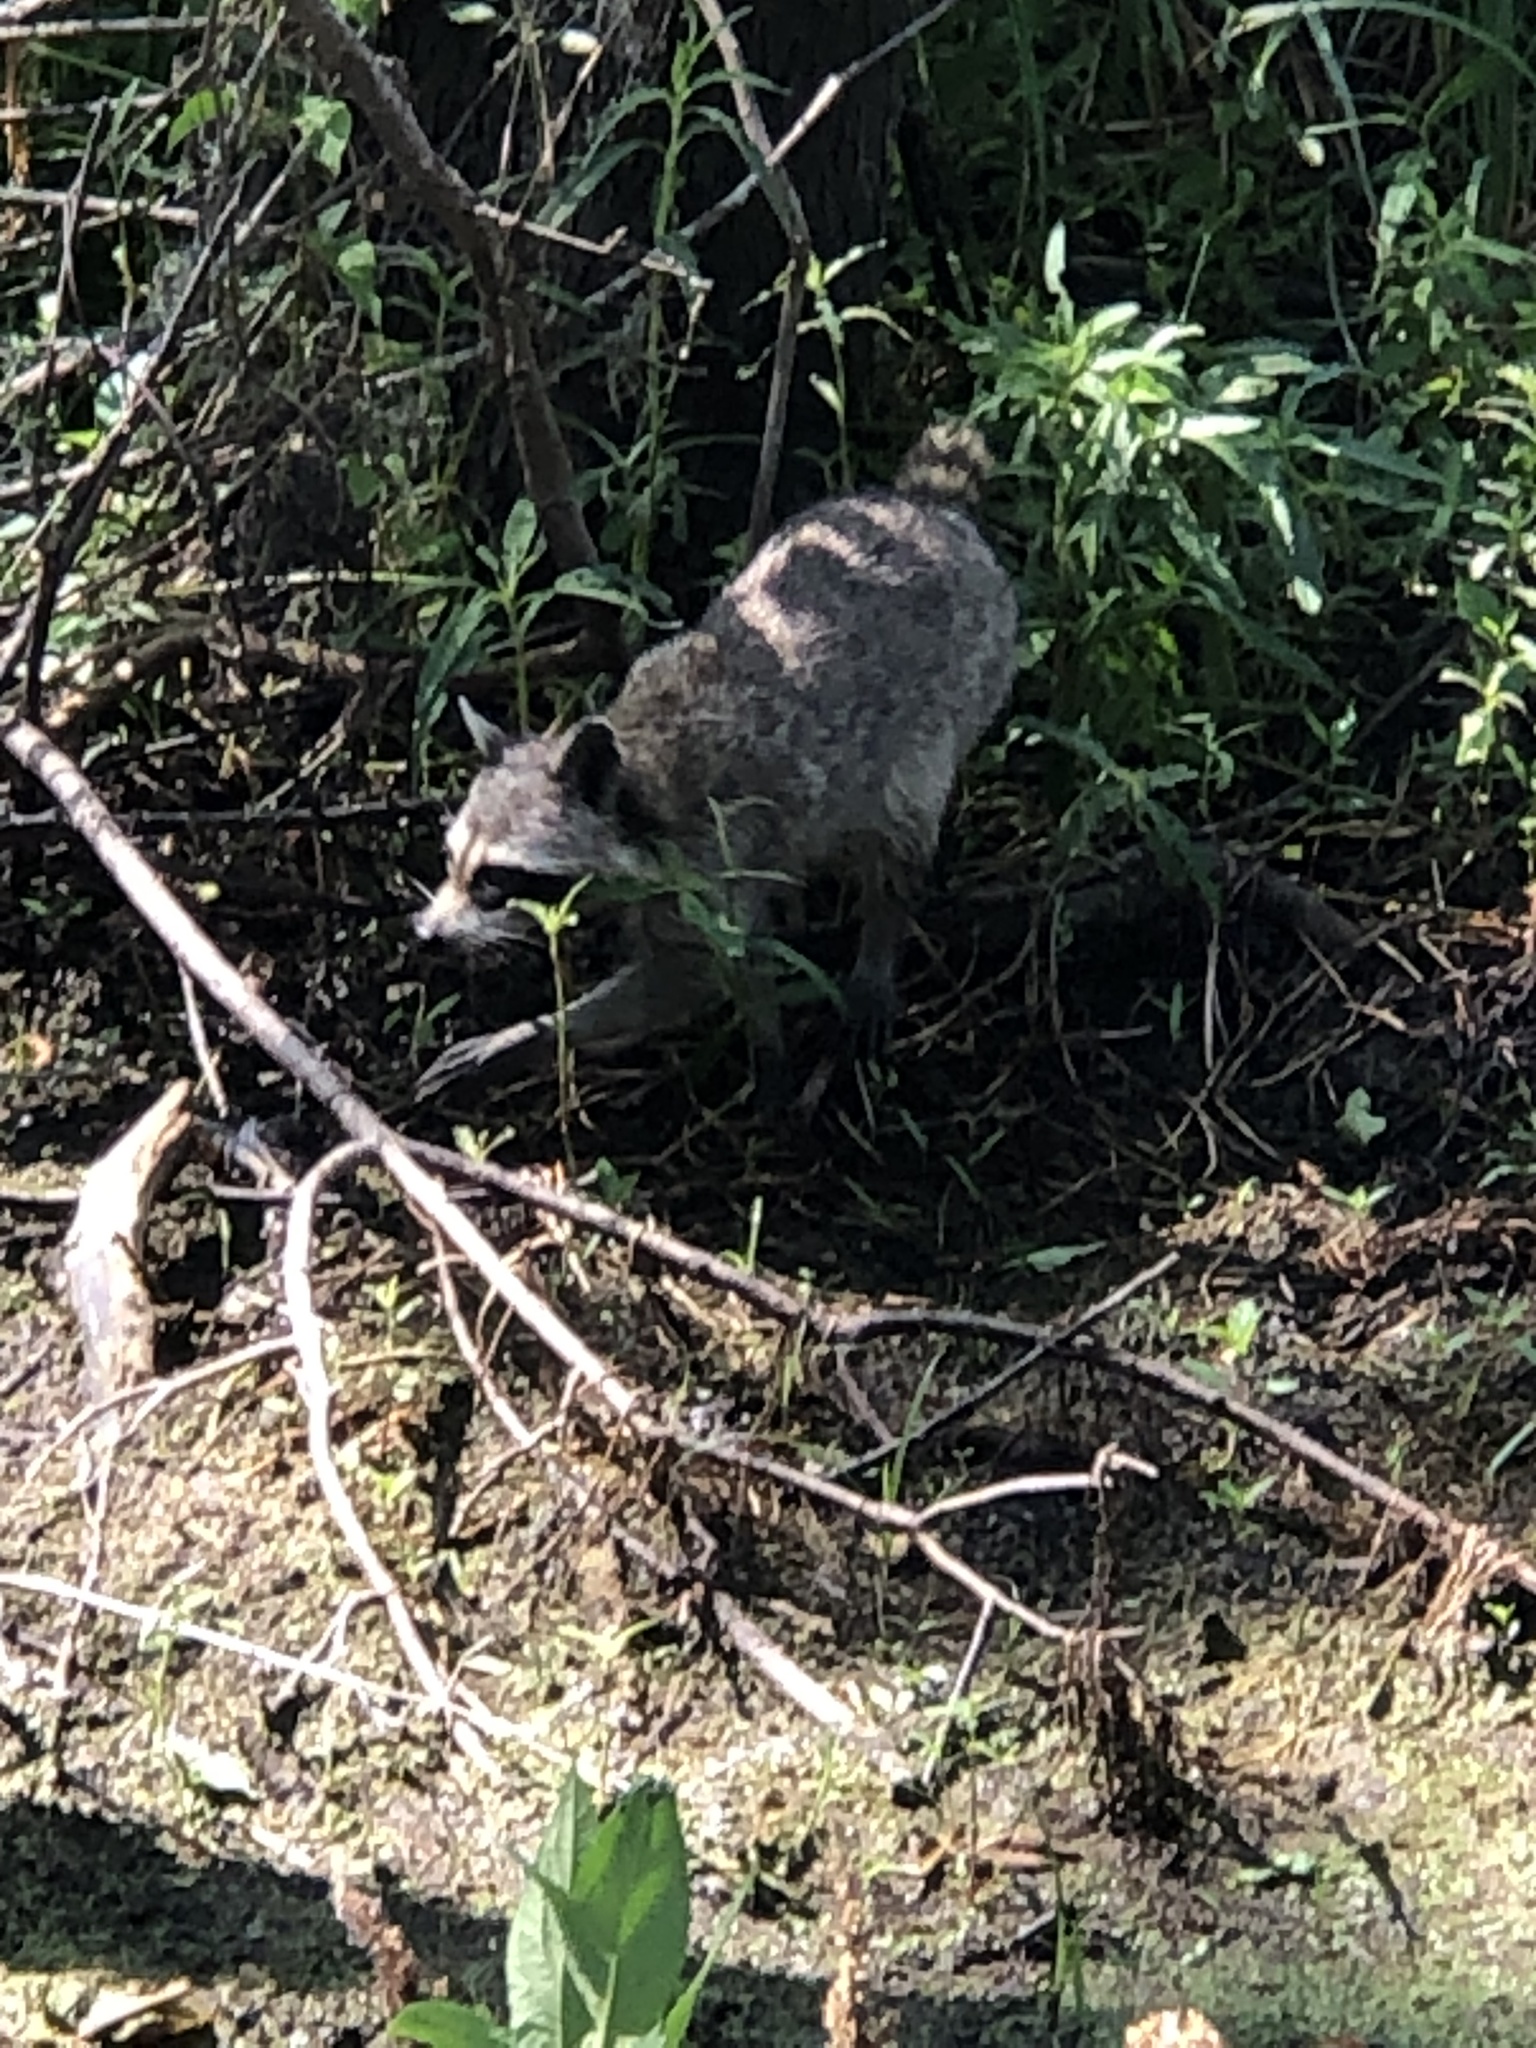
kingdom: Animalia
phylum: Chordata
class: Mammalia
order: Carnivora
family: Procyonidae
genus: Procyon
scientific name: Procyon lotor
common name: Raccoon
